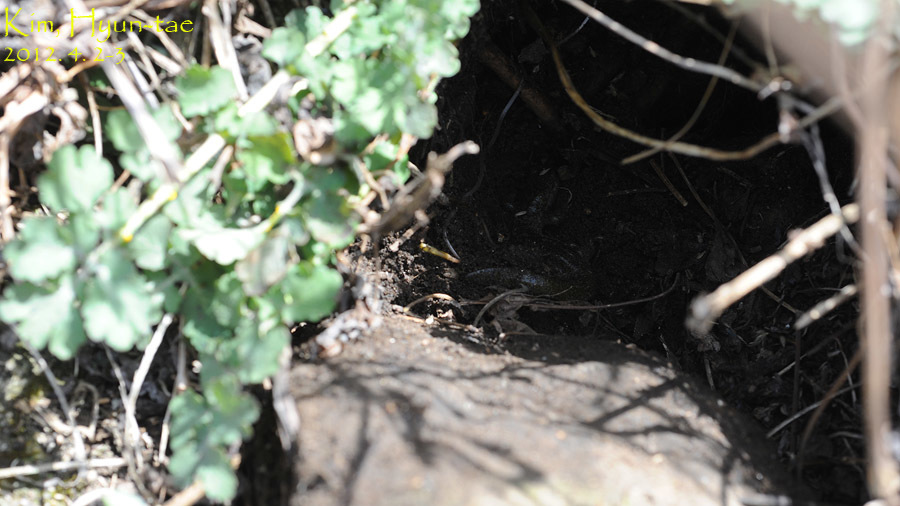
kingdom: Animalia
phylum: Chordata
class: Amphibia
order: Caudata
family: Hynobiidae
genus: Hynobius
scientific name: Hynobius leechii
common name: Gensan salamander
